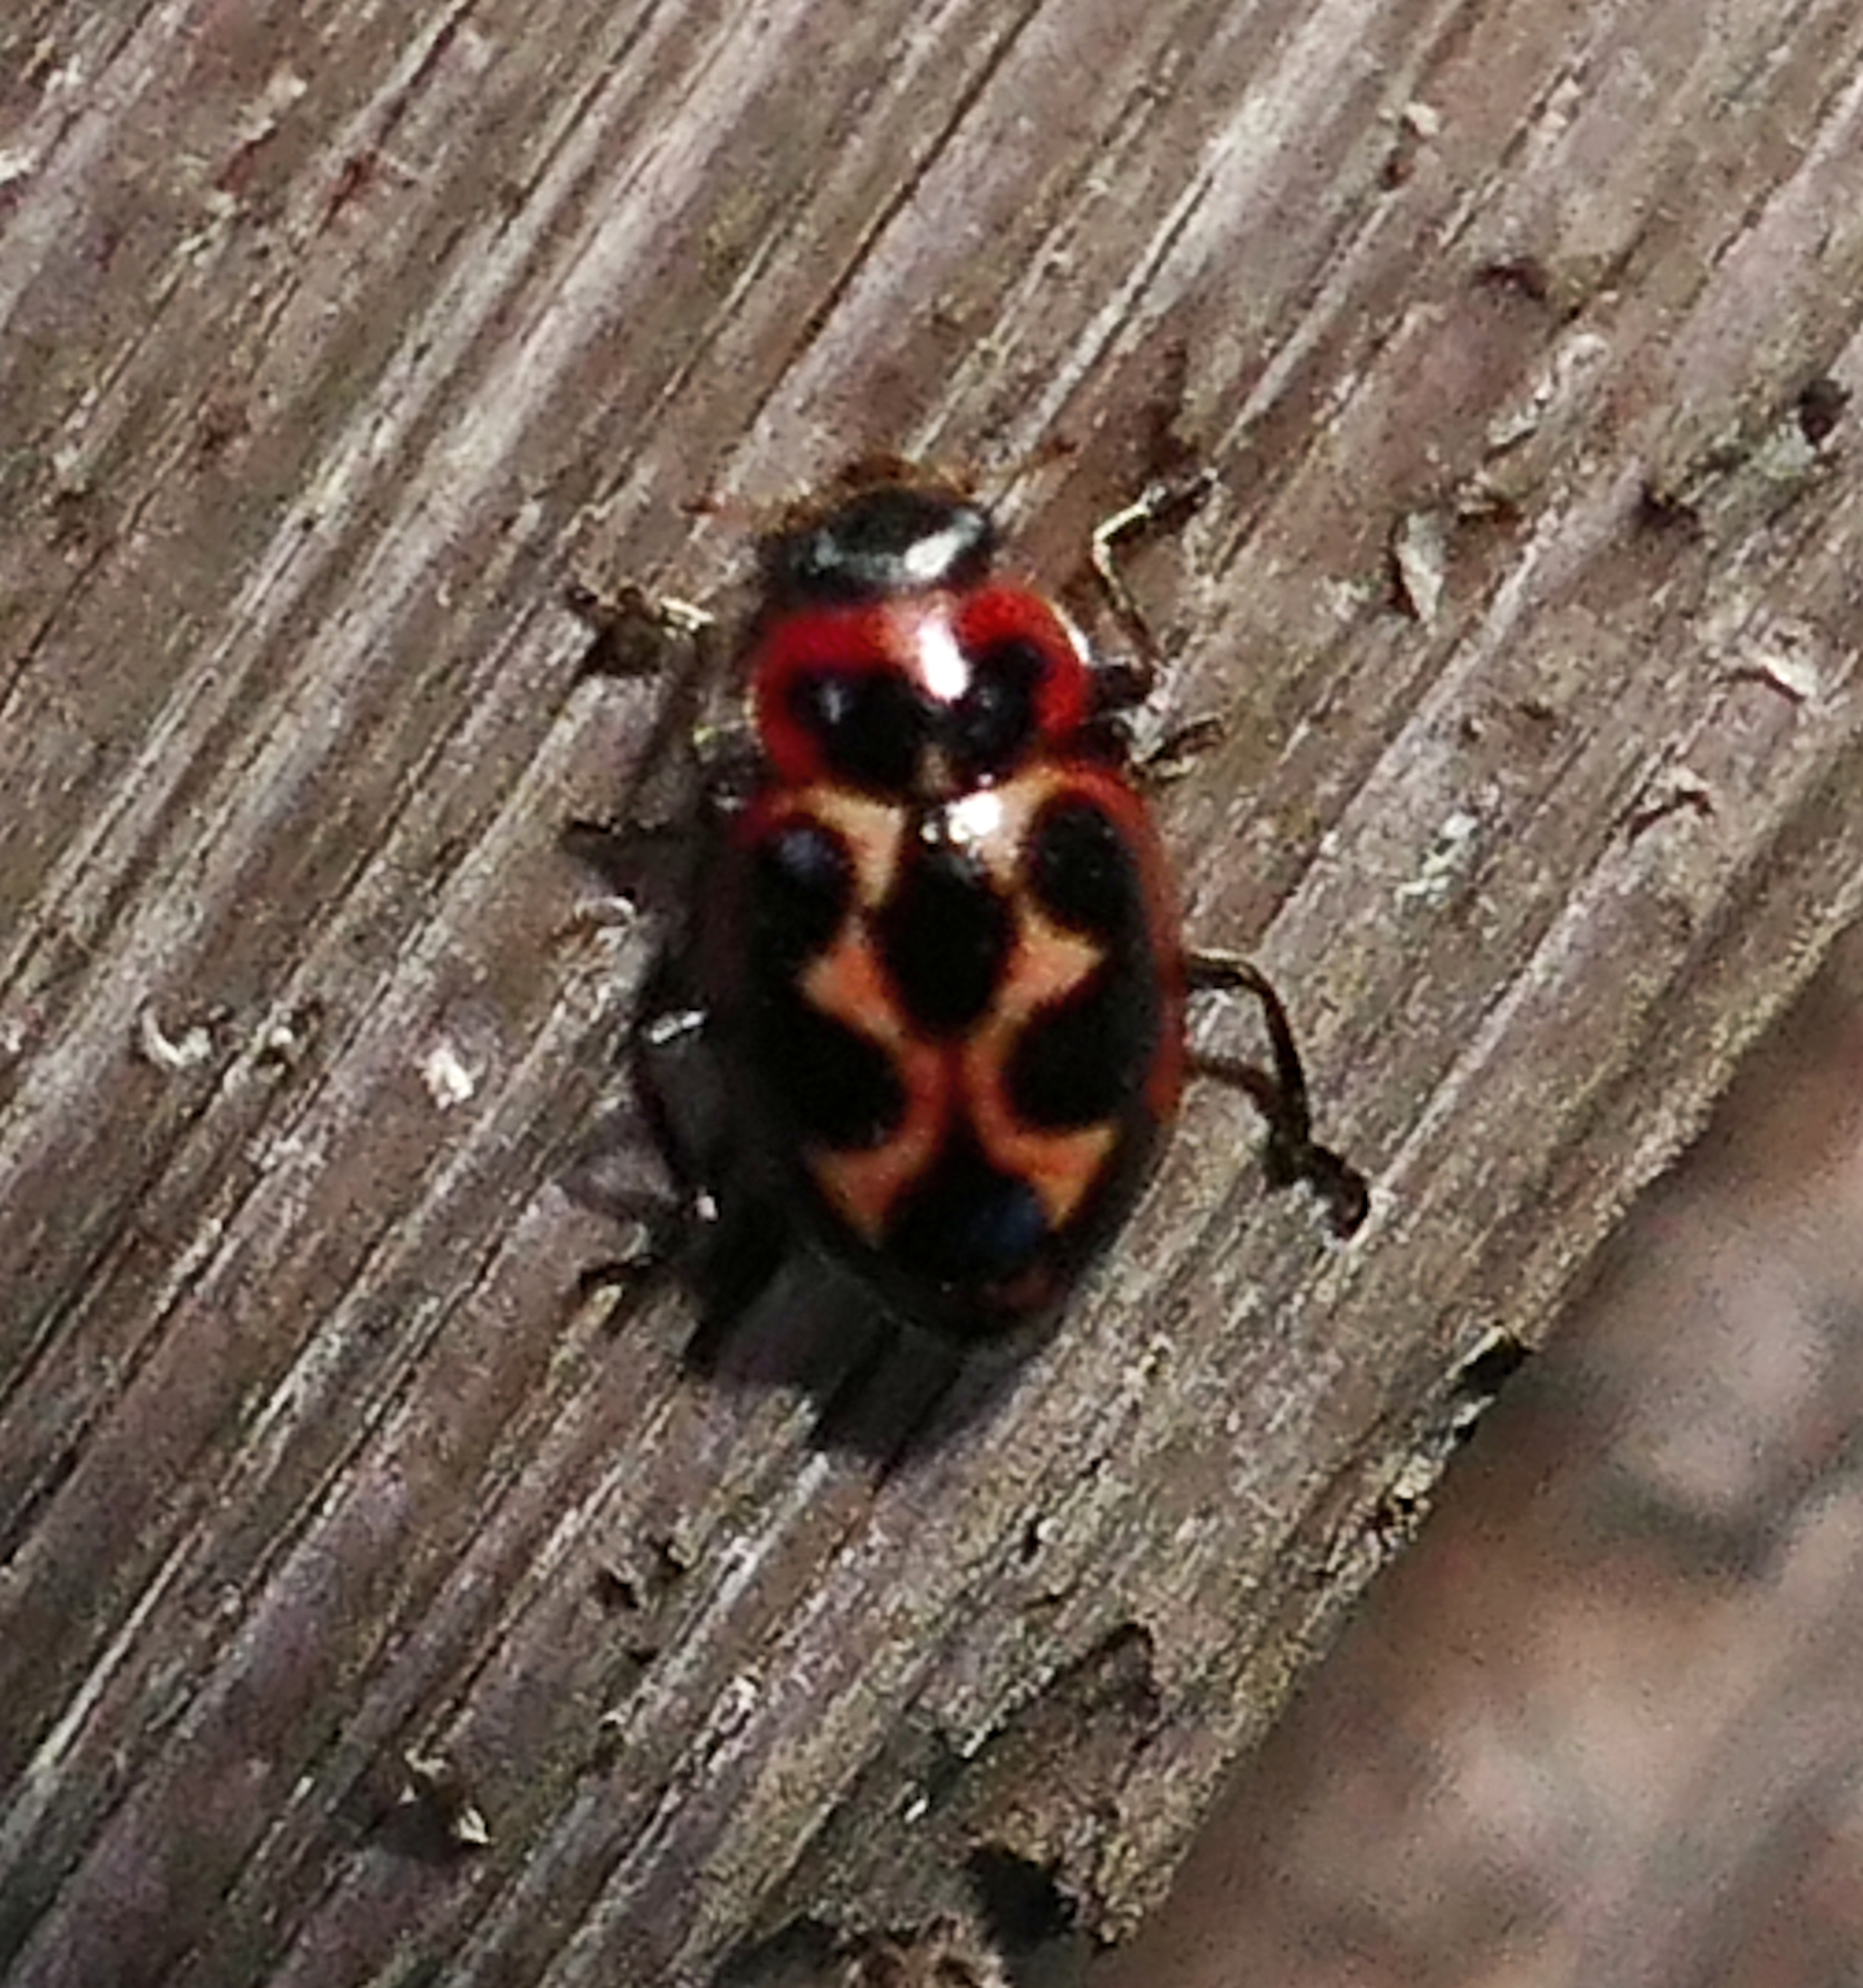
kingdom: Animalia
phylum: Arthropoda
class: Insecta
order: Coleoptera
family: Coccinellidae
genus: Naemia
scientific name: Naemia seriata
